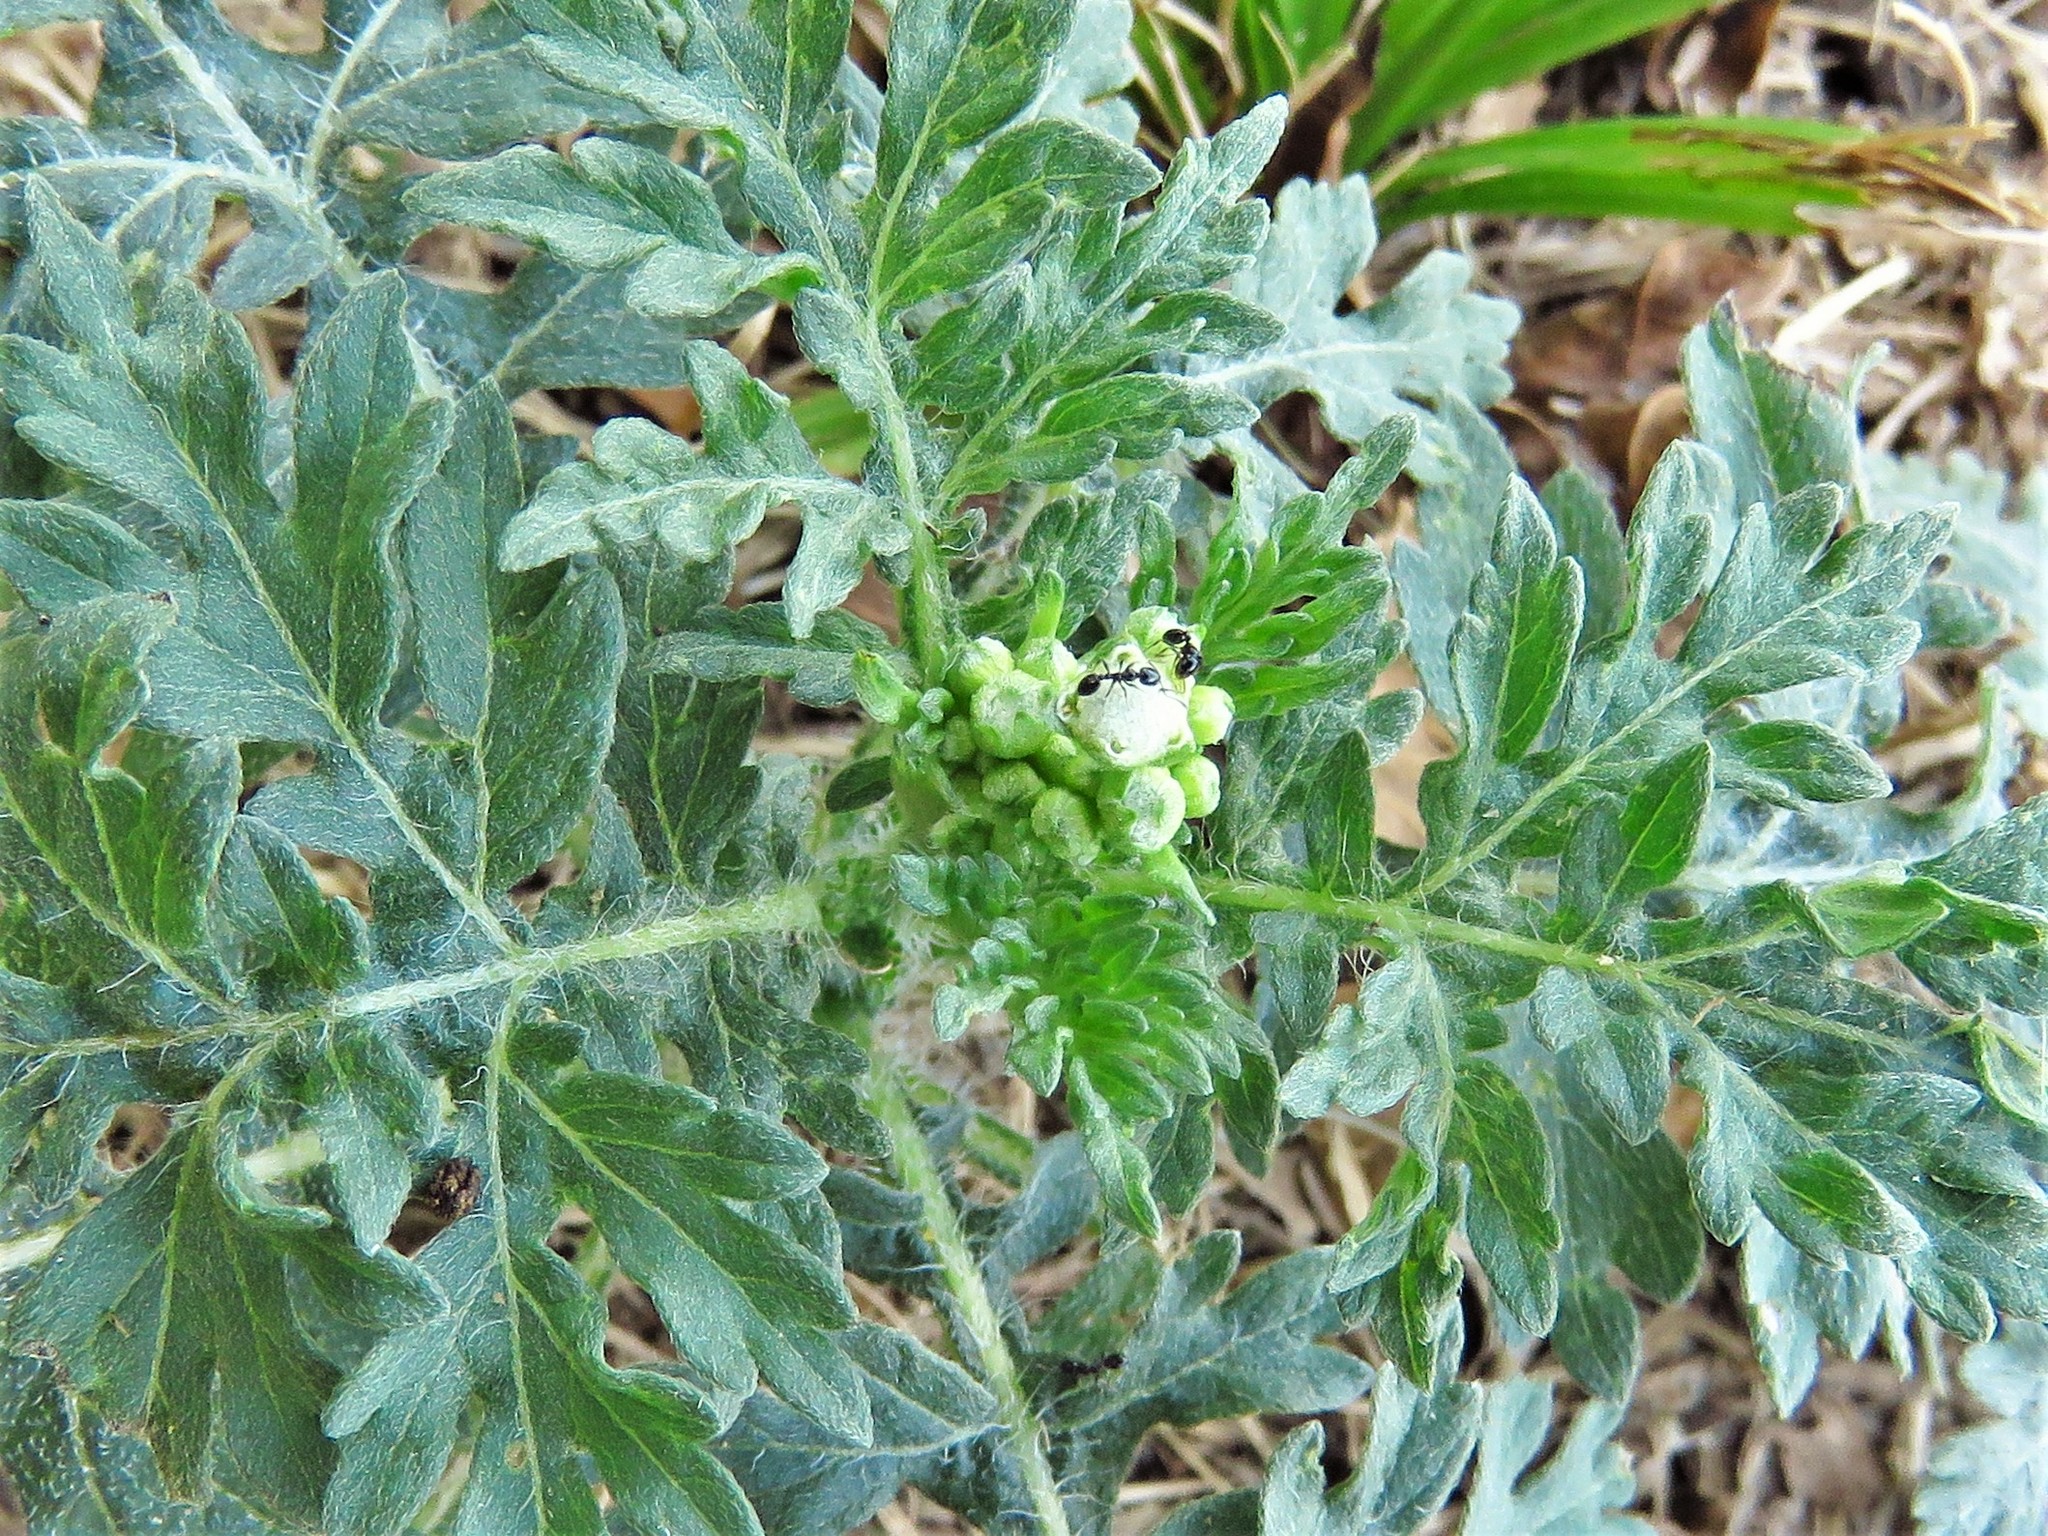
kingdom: Plantae
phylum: Tracheophyta
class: Magnoliopsida
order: Asterales
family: Asteraceae
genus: Parthenium
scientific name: Parthenium hysterophorus
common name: Santa maria feverfew
